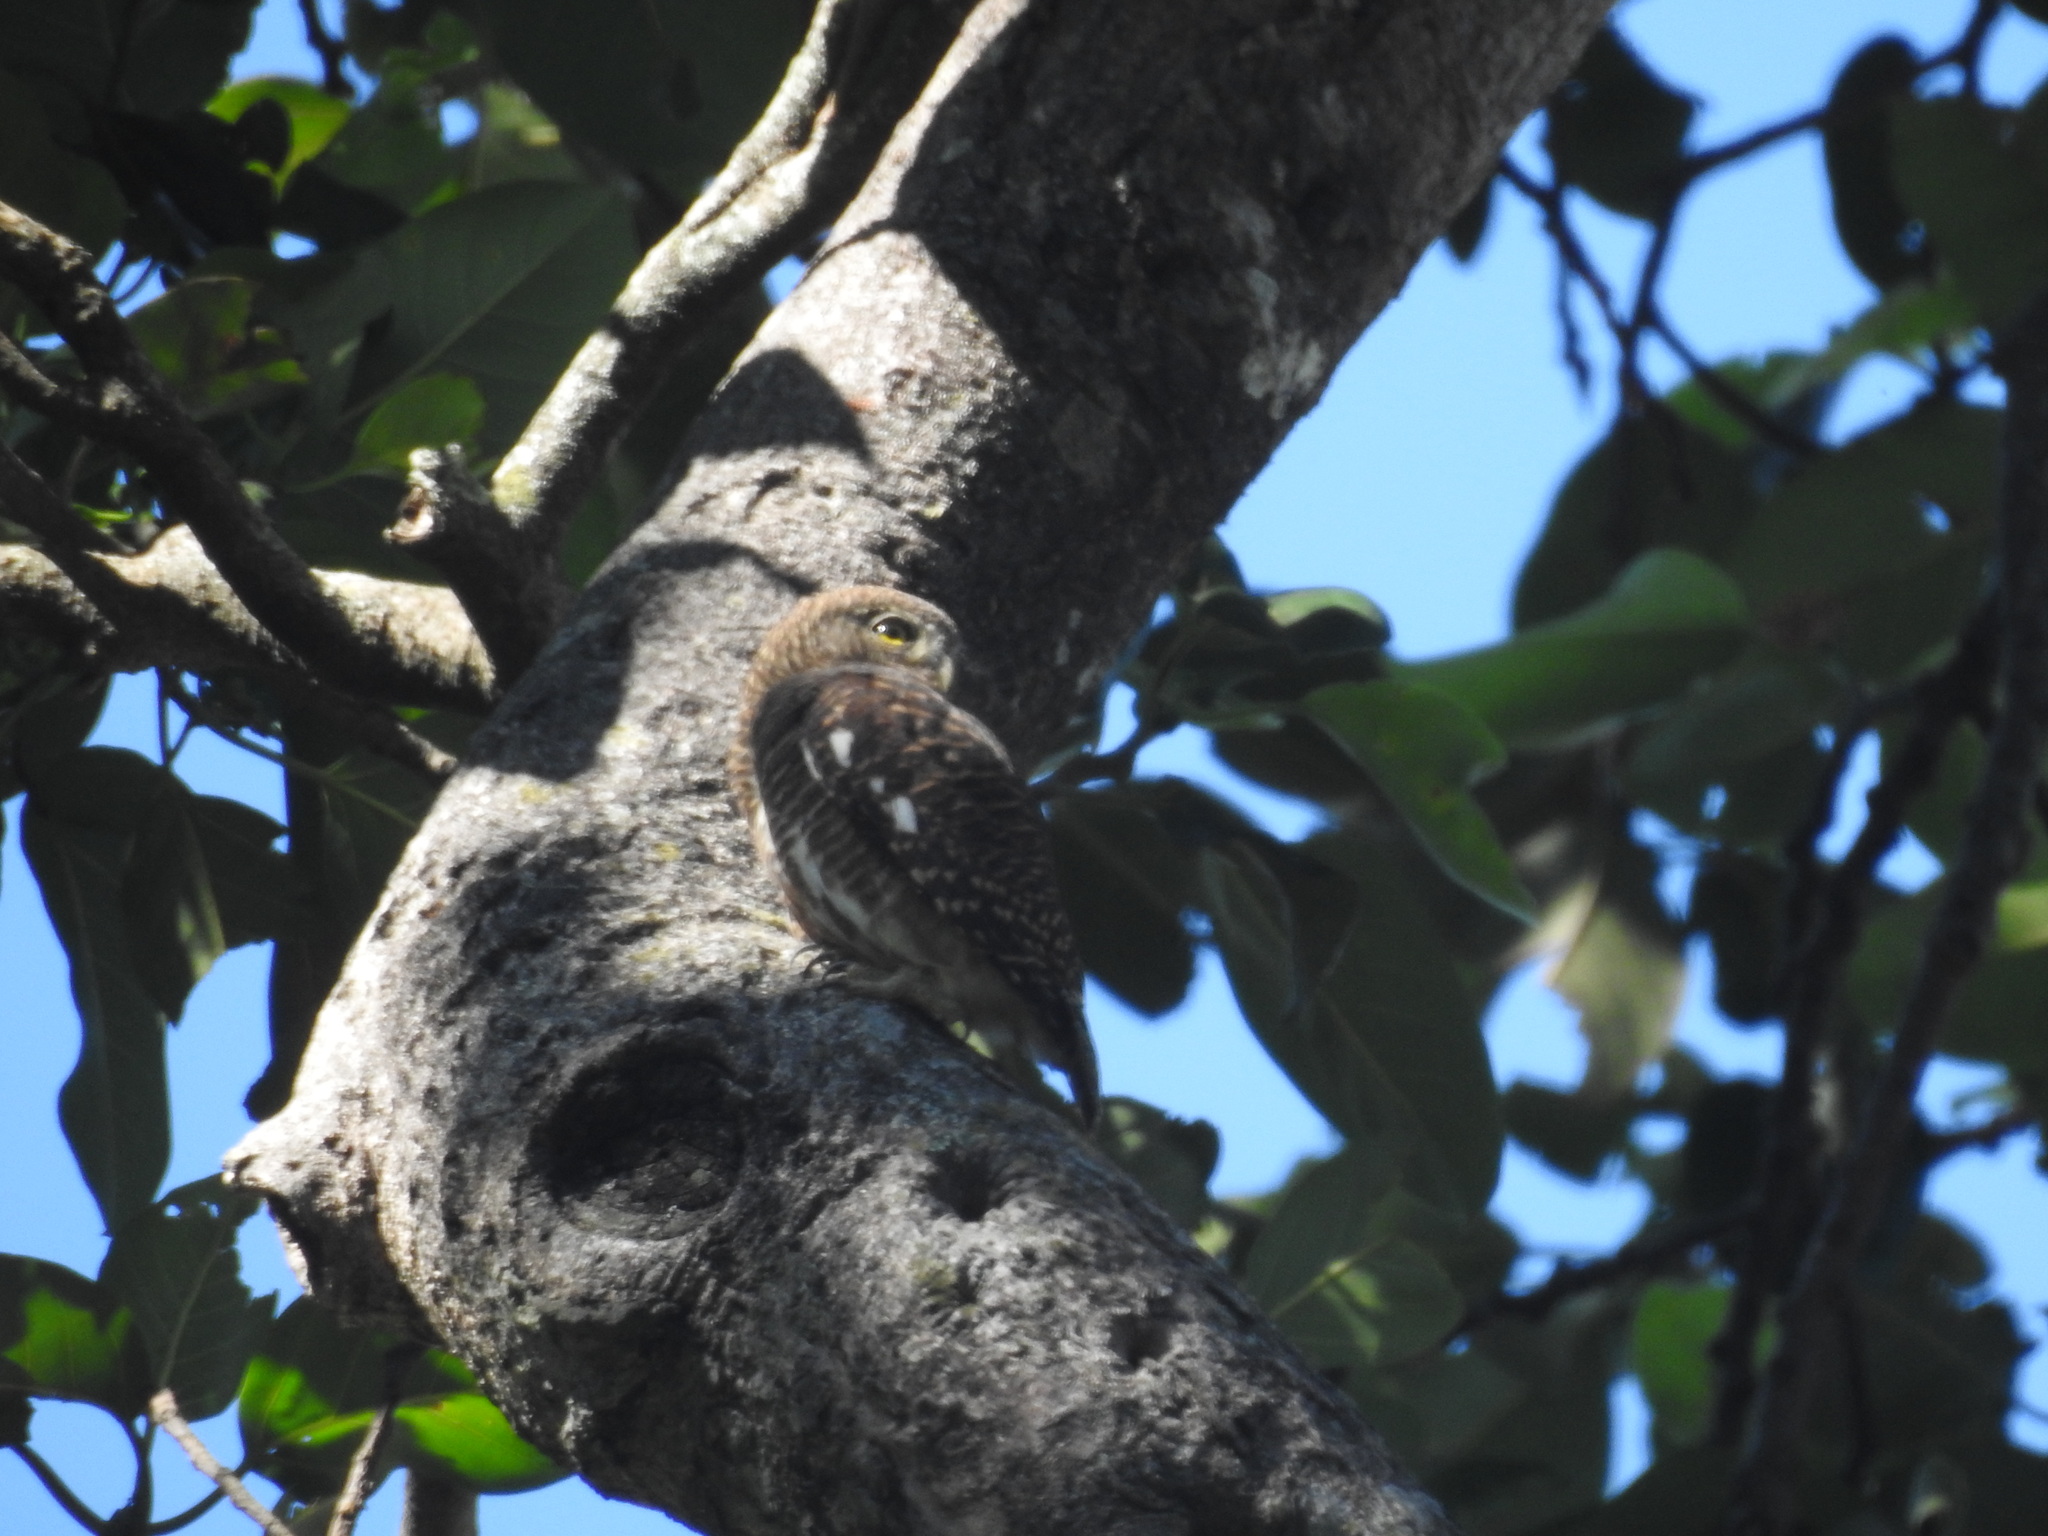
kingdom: Animalia
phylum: Chordata
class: Aves
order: Strigiformes
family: Strigidae
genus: Glaucidium
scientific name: Glaucidium cuculoides
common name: Asian barred owlet
